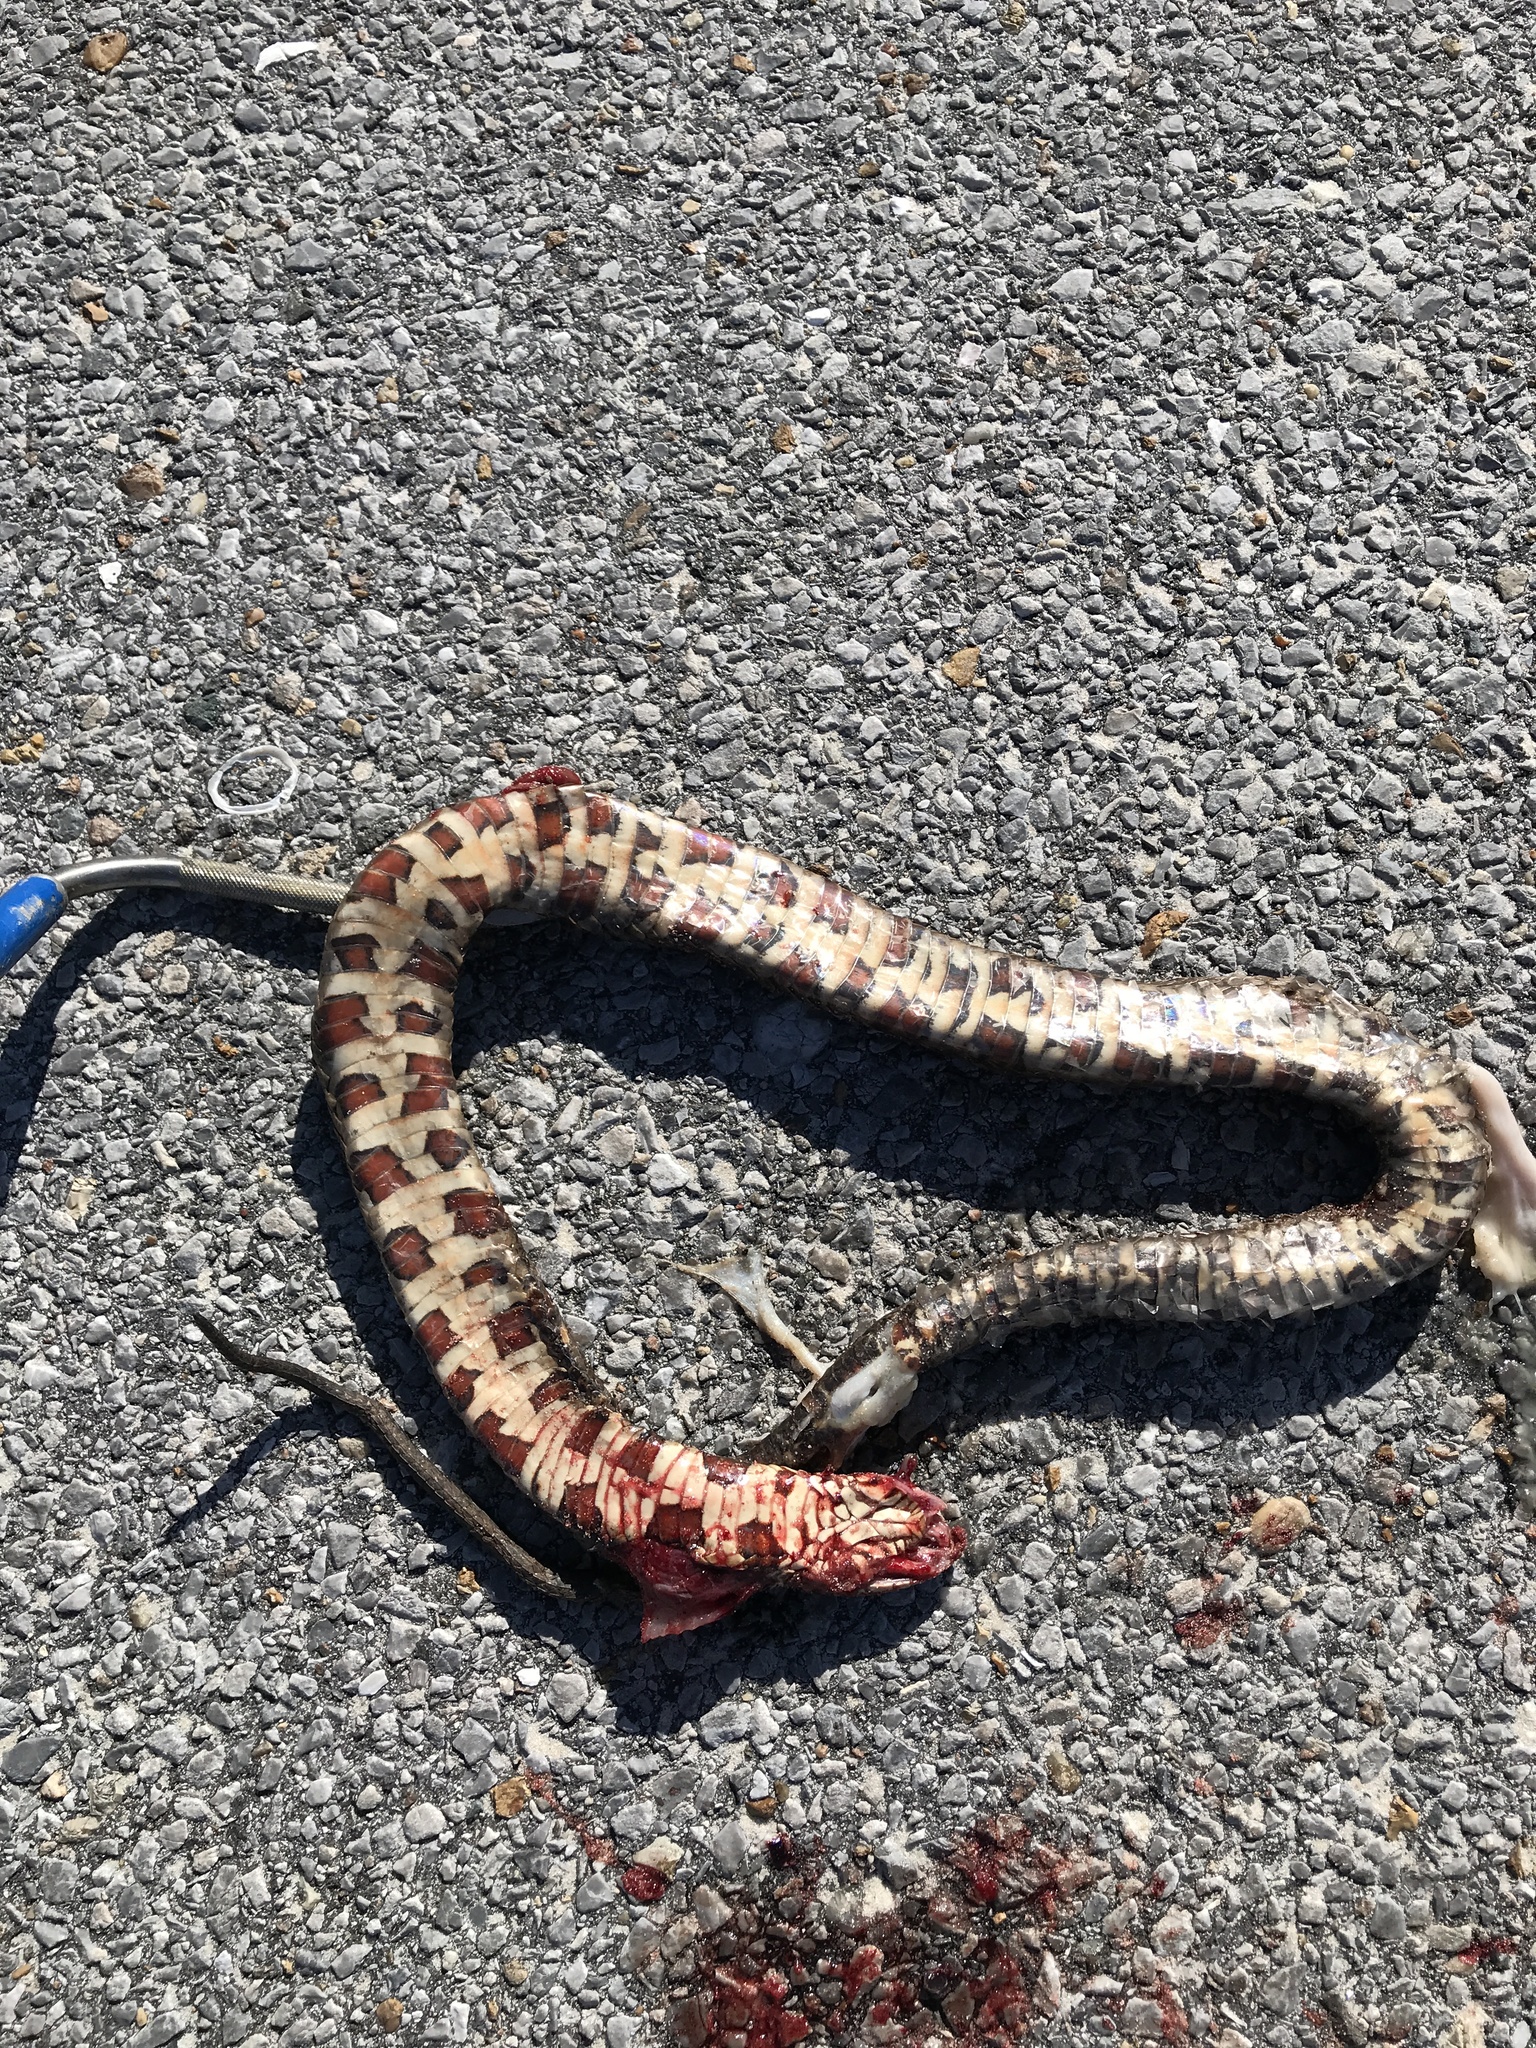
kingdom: Animalia
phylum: Chordata
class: Squamata
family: Colubridae
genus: Nerodia
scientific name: Nerodia fasciata
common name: Southern water snake
